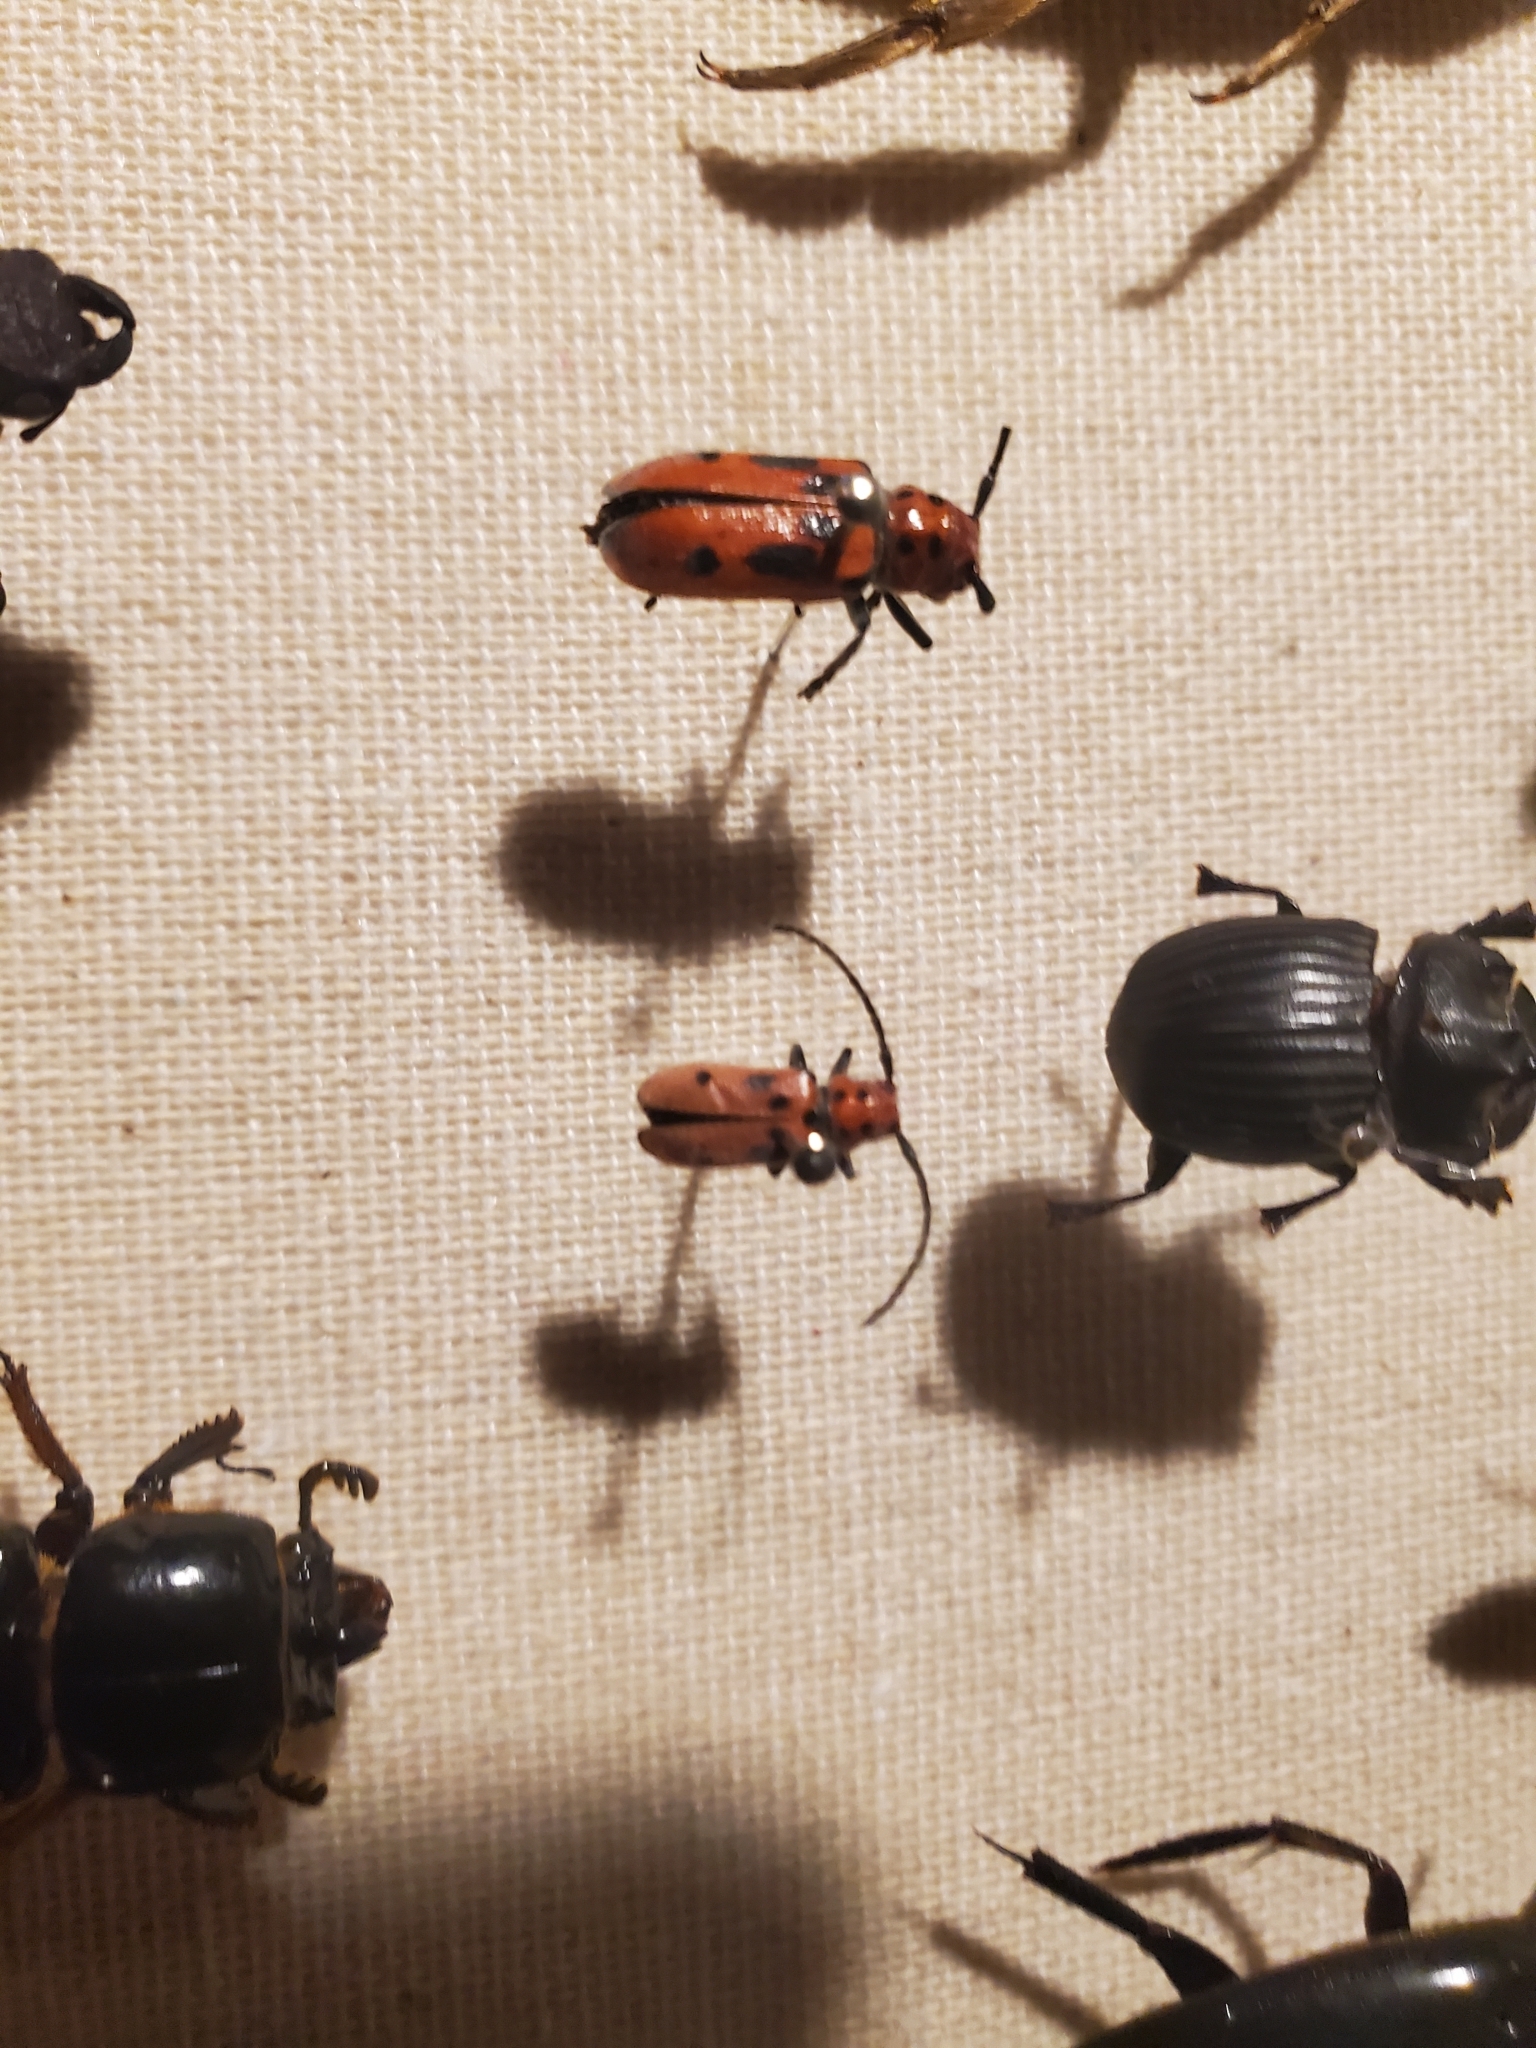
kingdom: Animalia
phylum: Arthropoda
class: Insecta
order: Coleoptera
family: Cerambycidae
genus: Tetraopes
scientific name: Tetraopes tetrophthalmus
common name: Red milkweed beetle
